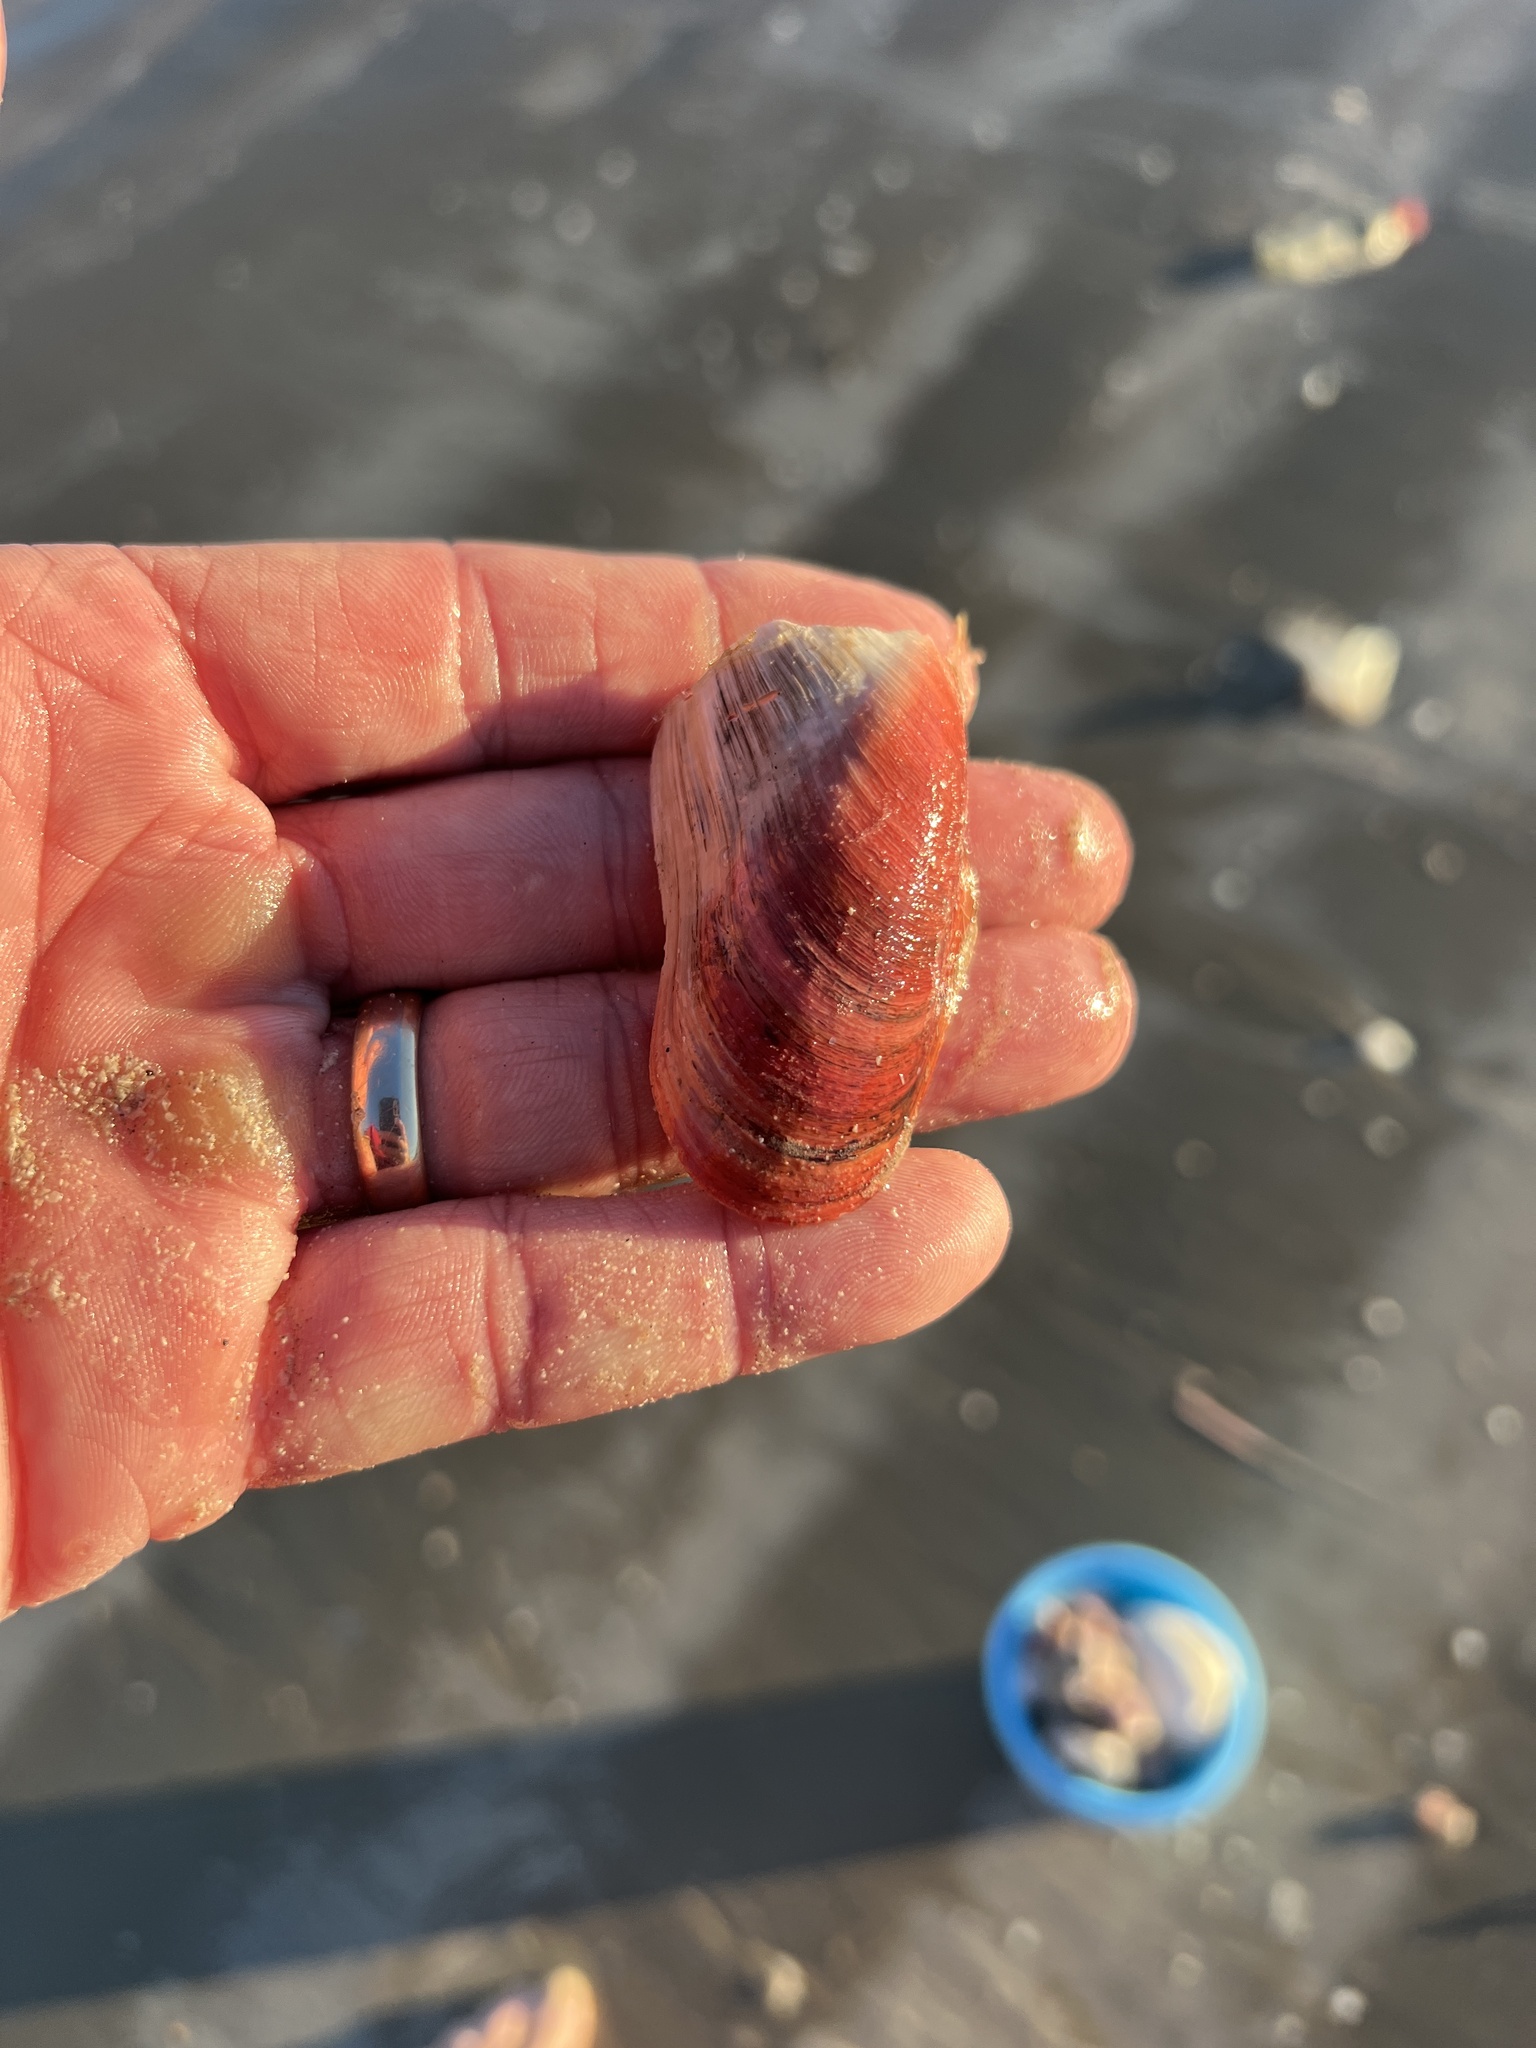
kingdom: Animalia
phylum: Mollusca
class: Bivalvia
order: Mytilida
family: Mytilidae
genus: Modiolus
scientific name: Modiolus americanus
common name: Tulip mussel
